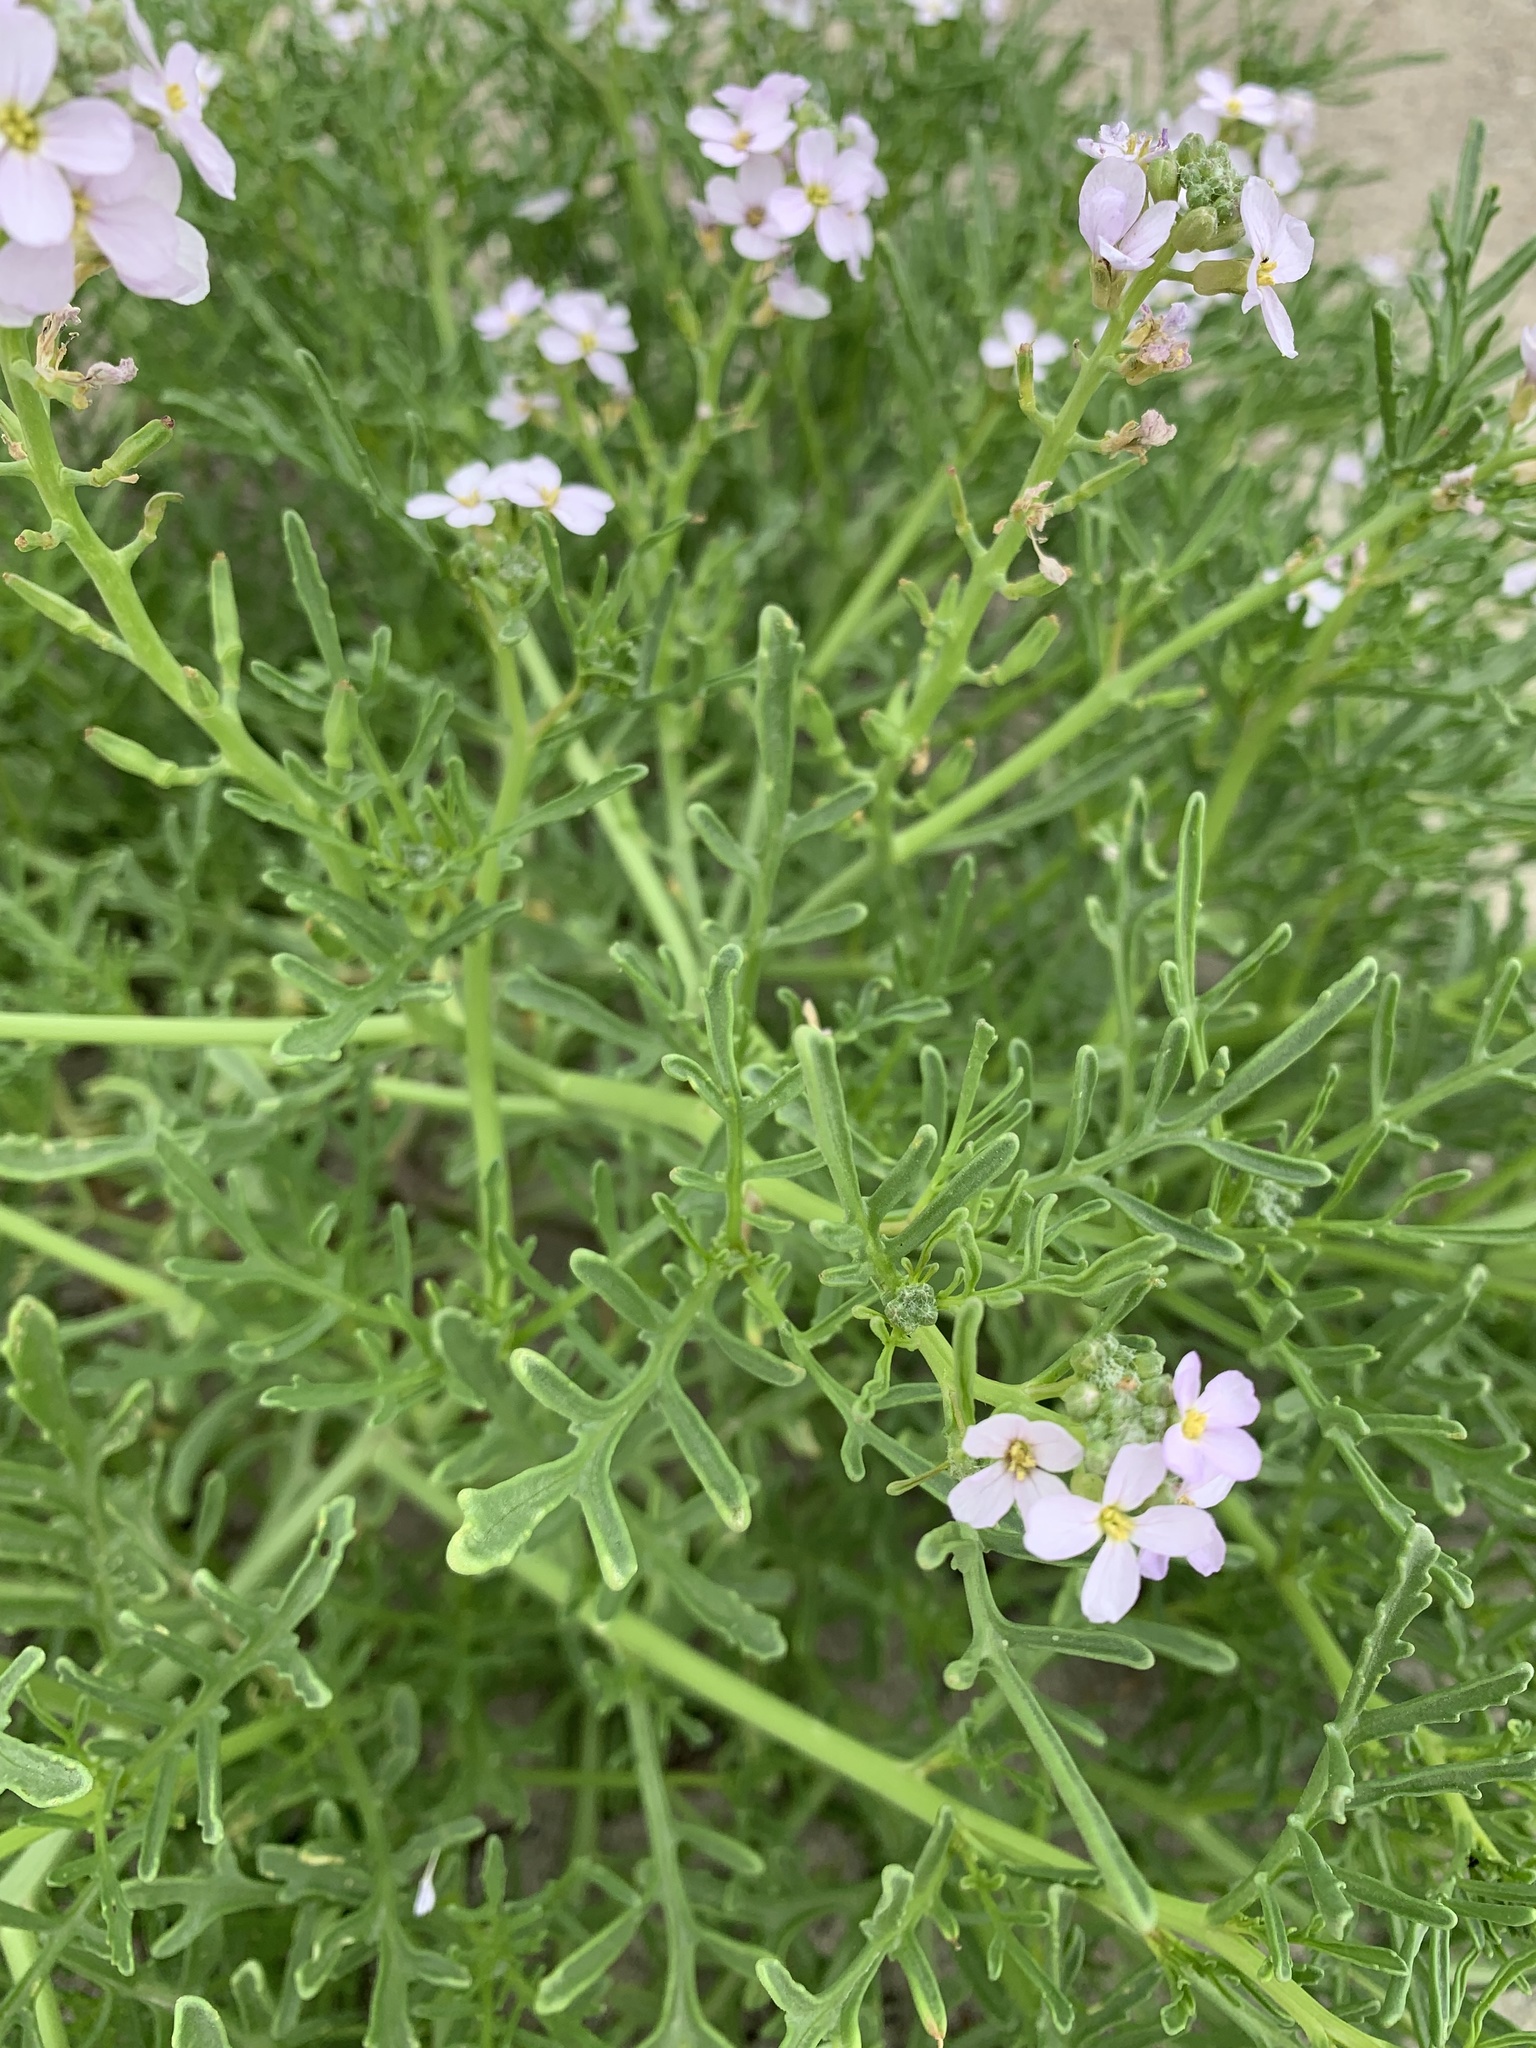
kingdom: Plantae
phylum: Tracheophyta
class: Magnoliopsida
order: Brassicales
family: Brassicaceae
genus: Cakile
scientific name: Cakile maritima
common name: Sea rocket
